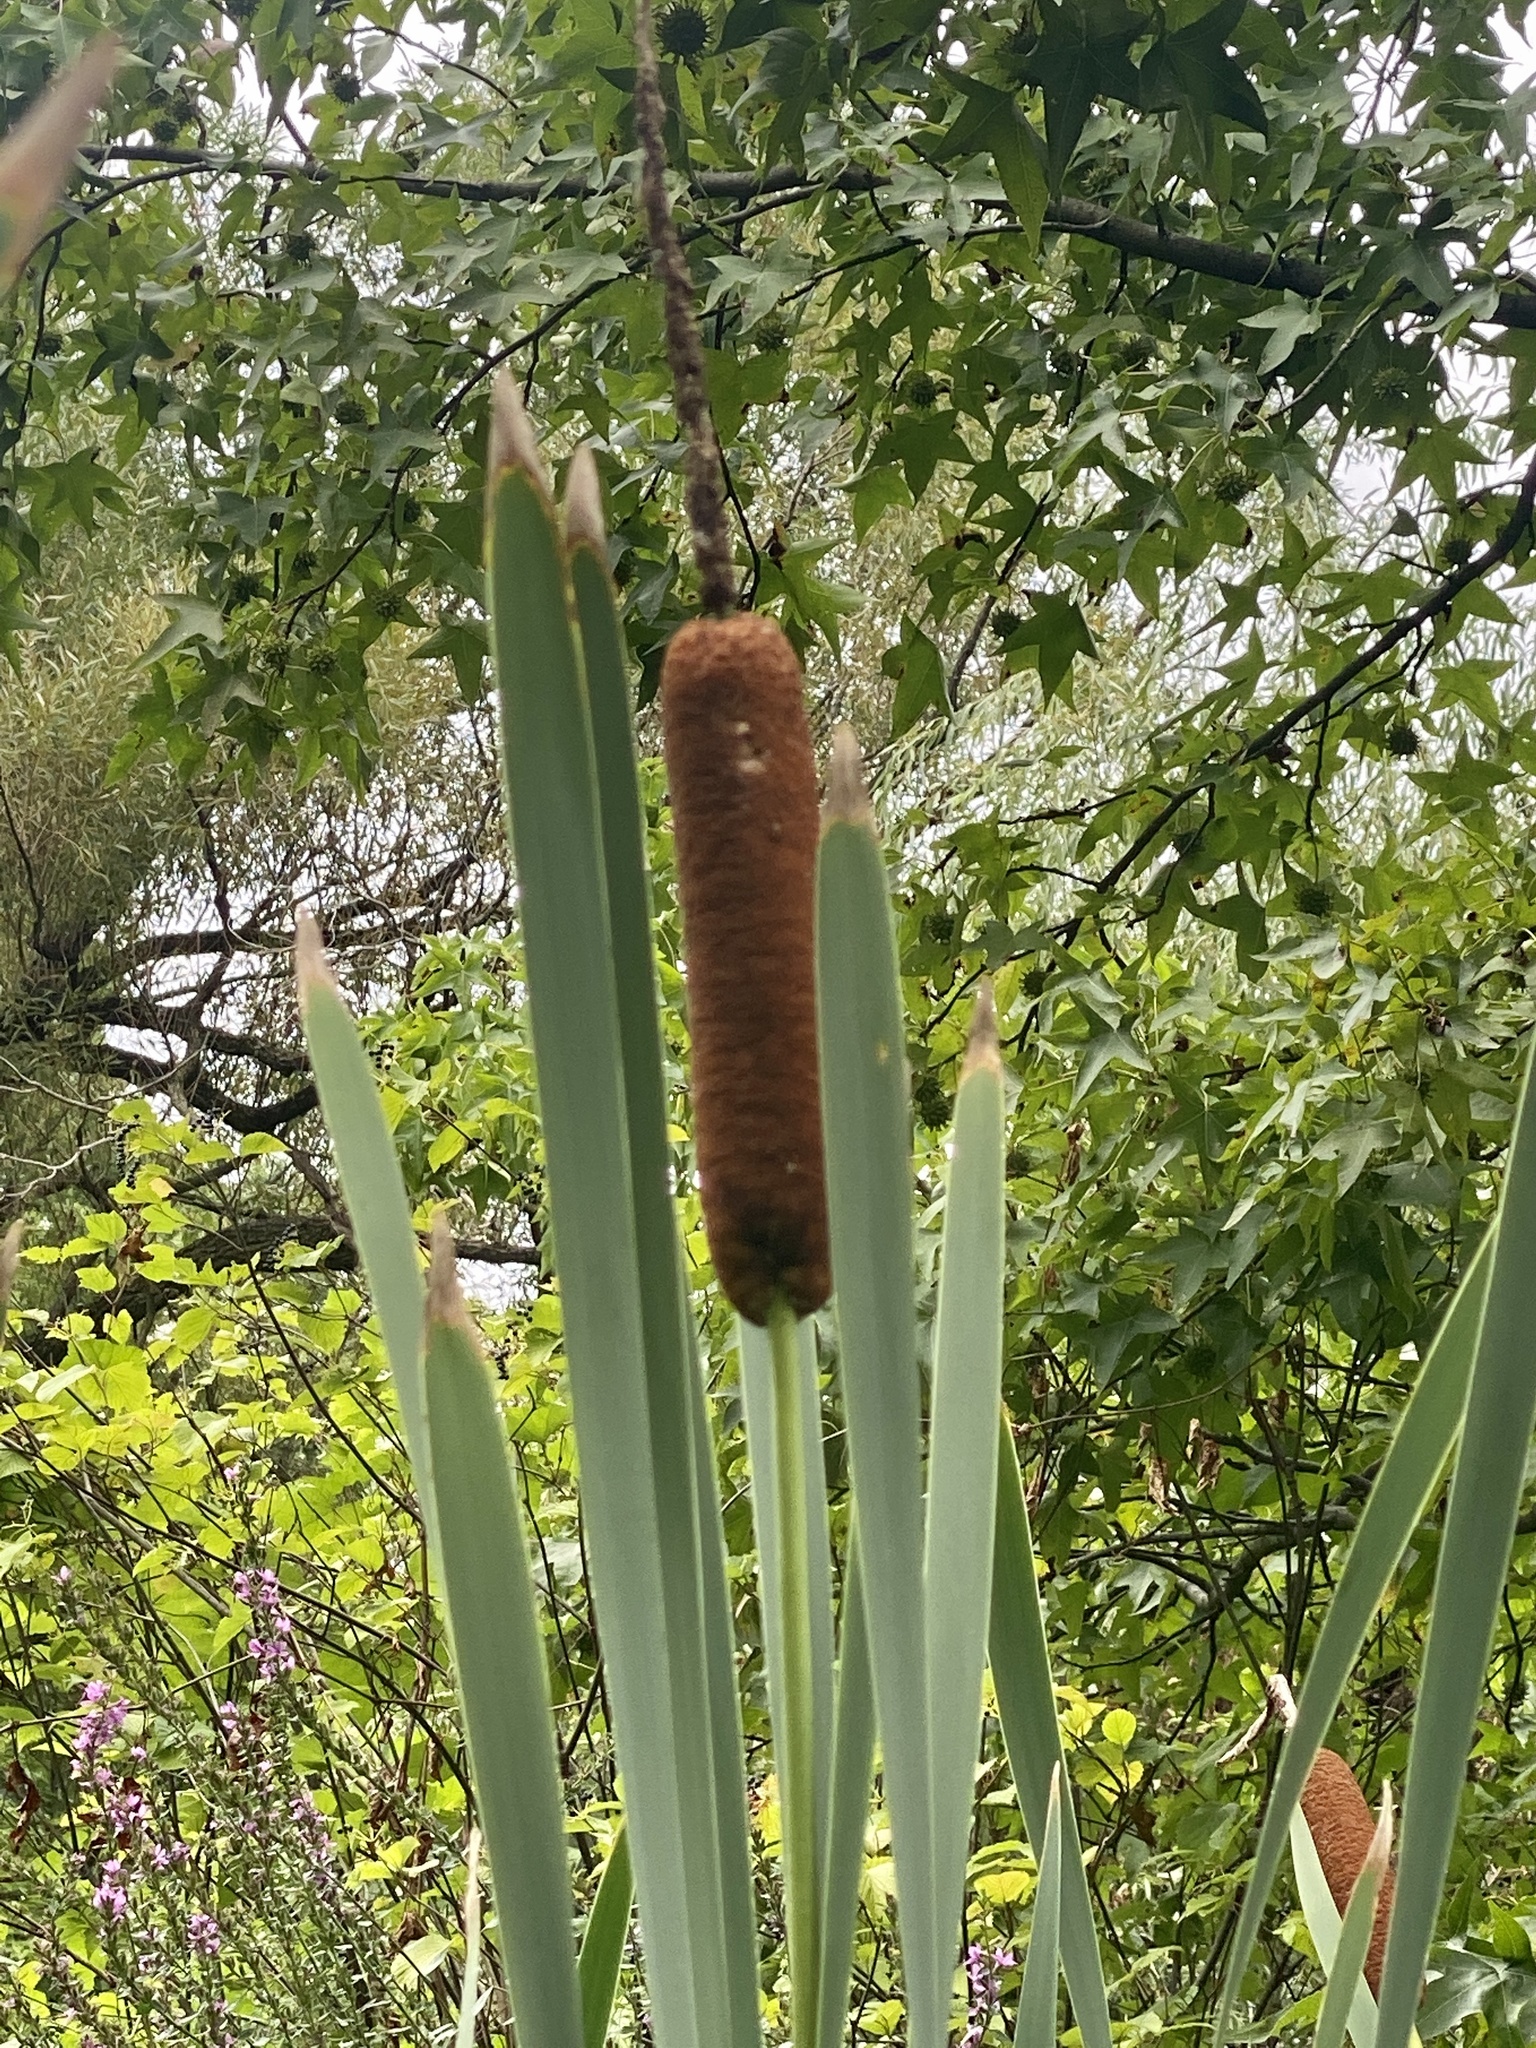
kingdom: Plantae
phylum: Tracheophyta
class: Liliopsida
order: Poales
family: Typhaceae
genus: Typha
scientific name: Typha latifolia
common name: Broadleaf cattail
